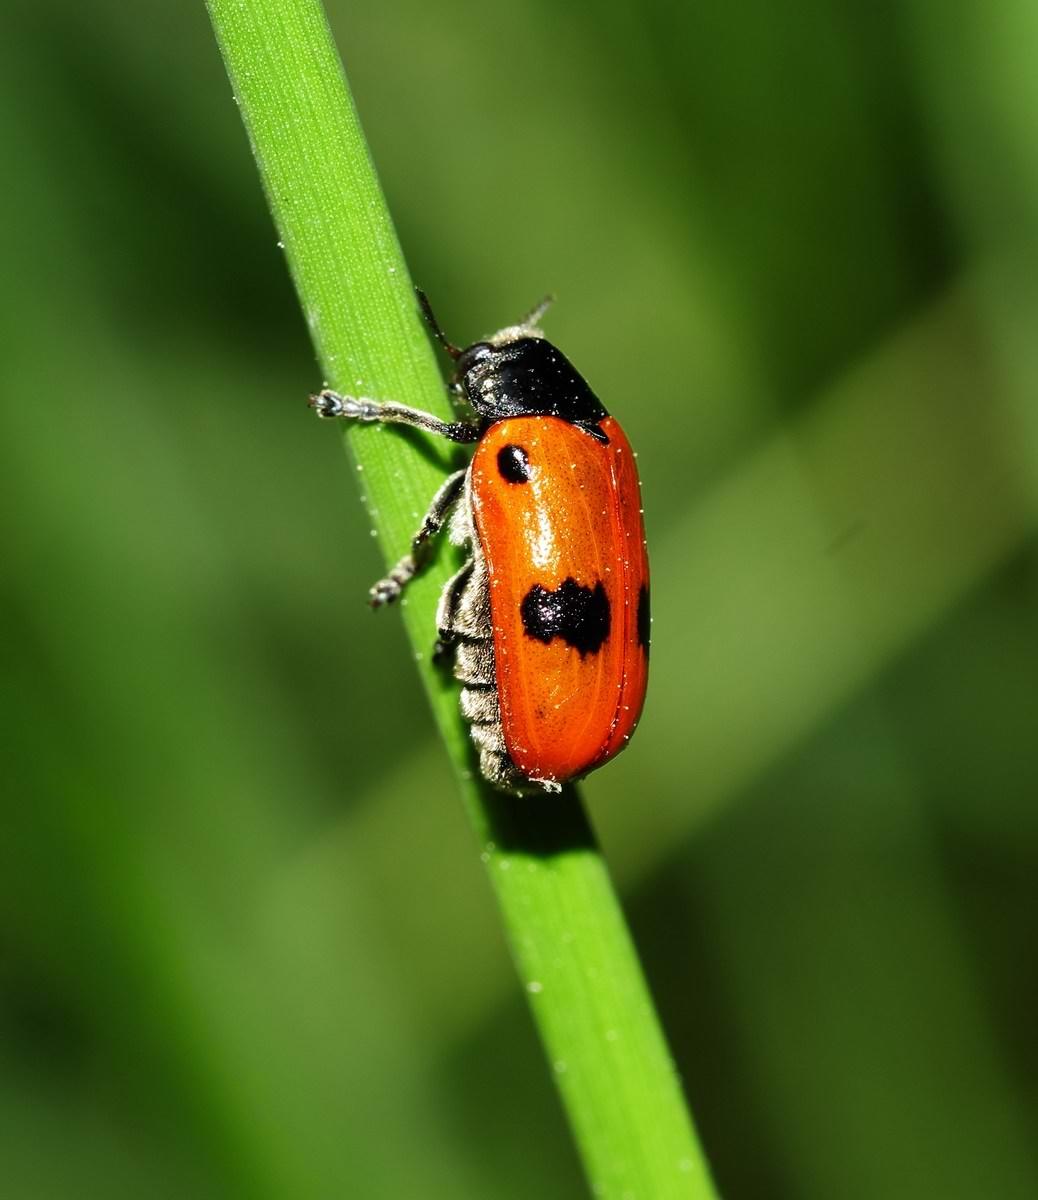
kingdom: Animalia
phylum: Arthropoda
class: Insecta
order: Coleoptera
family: Chrysomelidae
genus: Clytra
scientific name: Clytra quadripunctata
